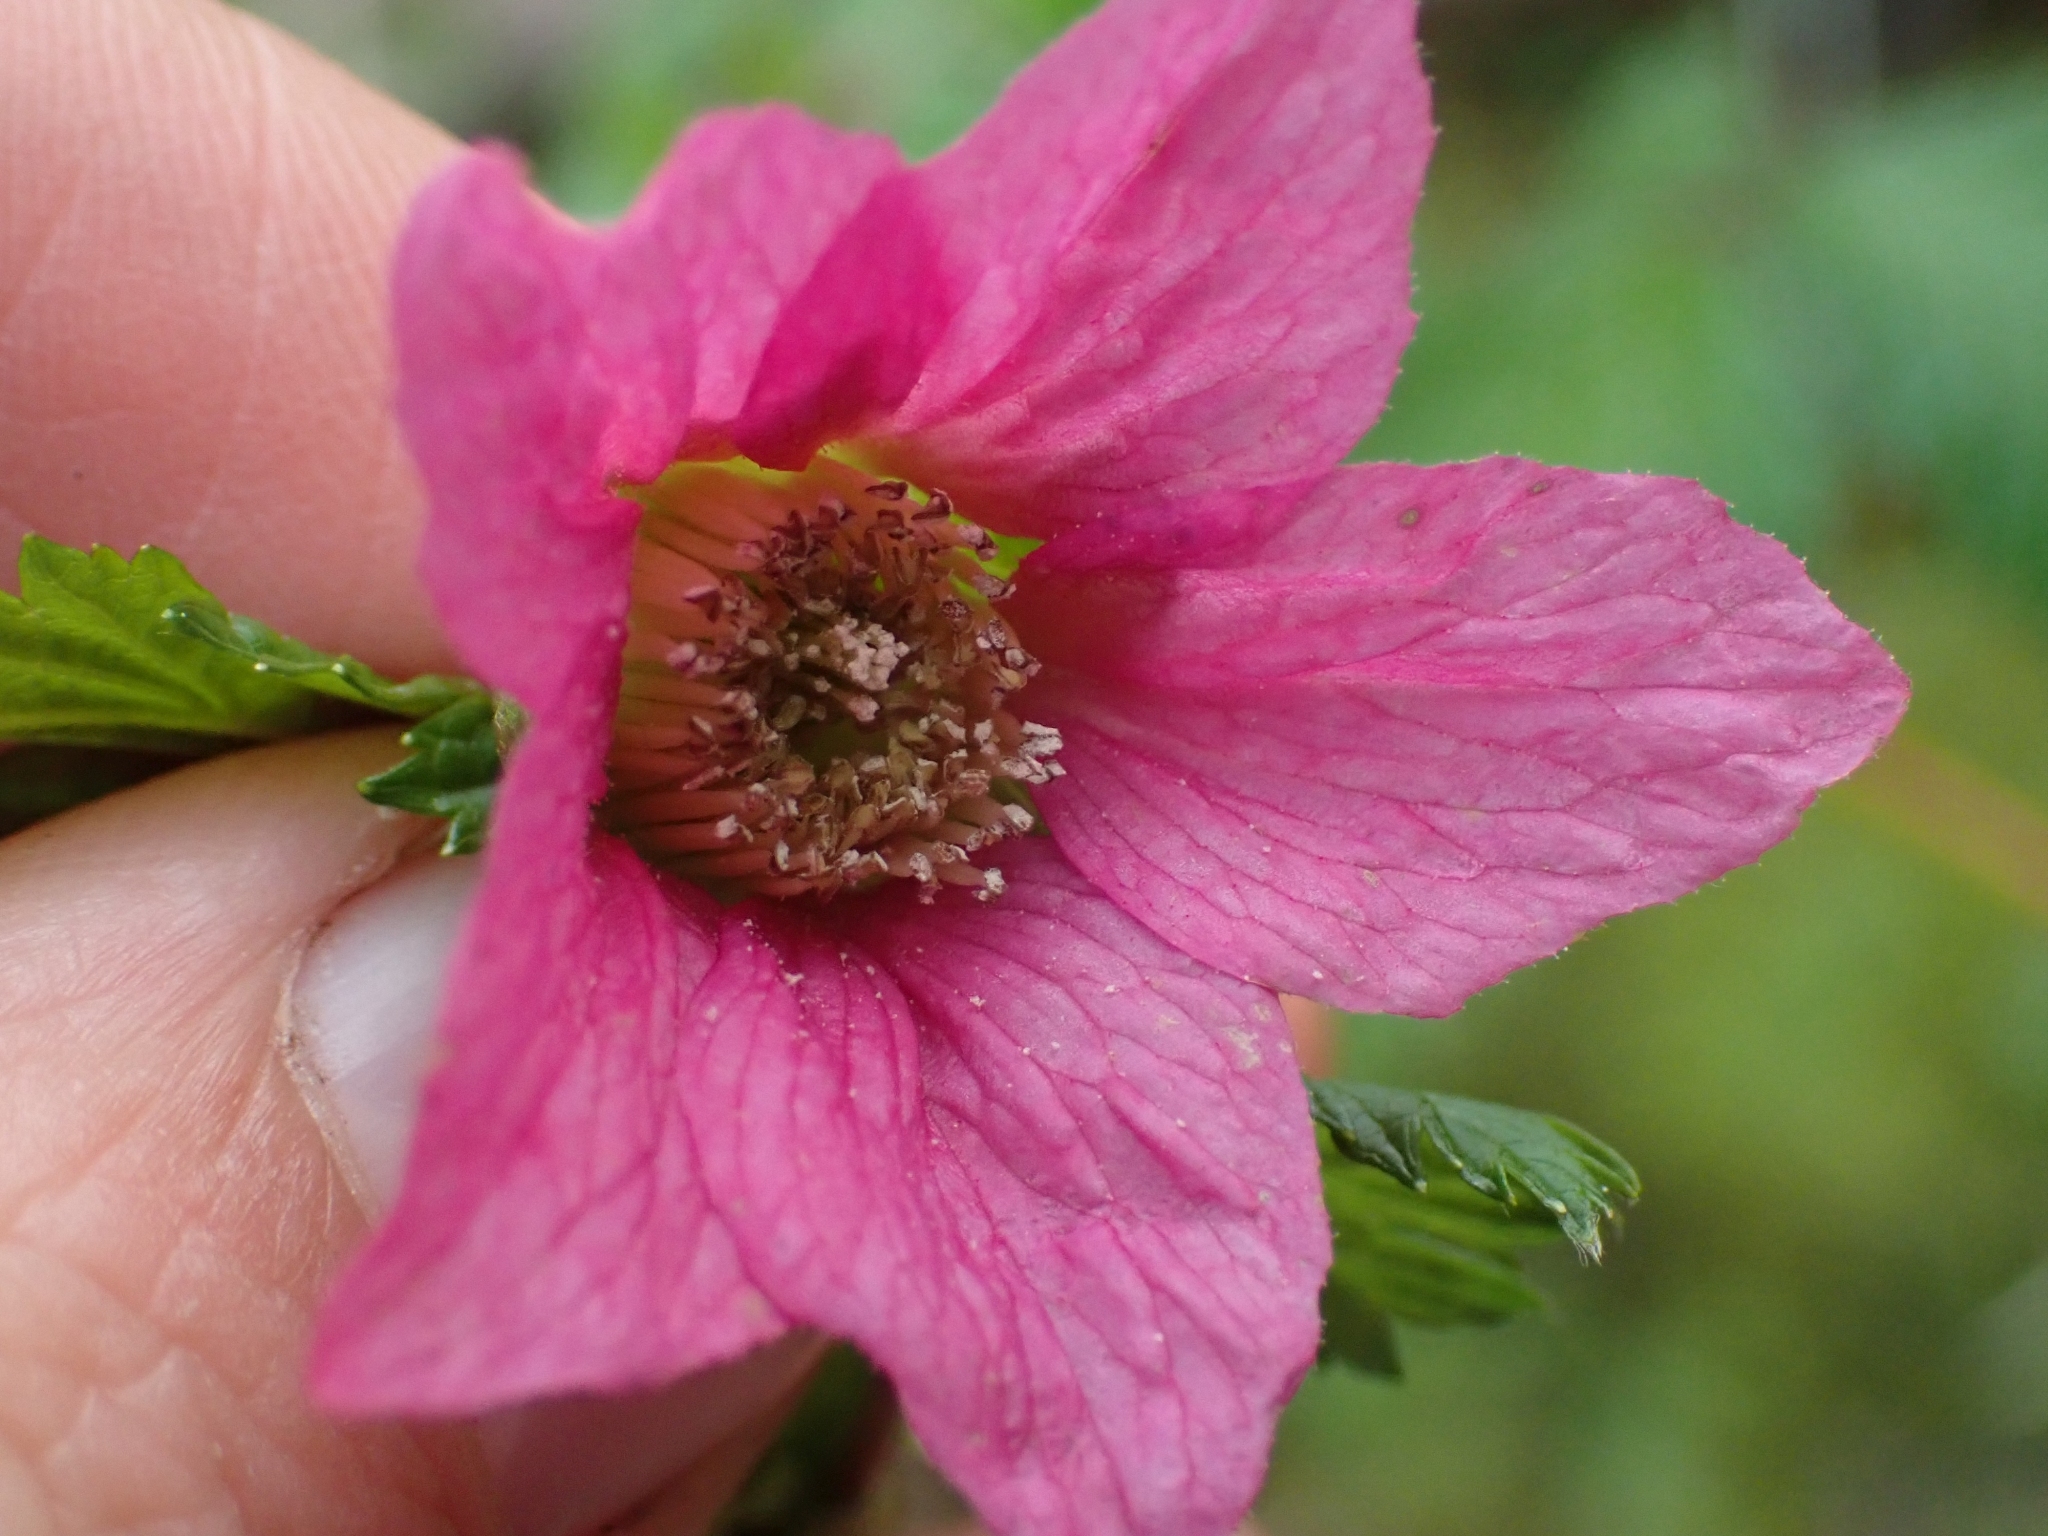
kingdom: Plantae
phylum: Tracheophyta
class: Magnoliopsida
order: Rosales
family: Rosaceae
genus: Rubus
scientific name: Rubus spectabilis
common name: Salmonberry
